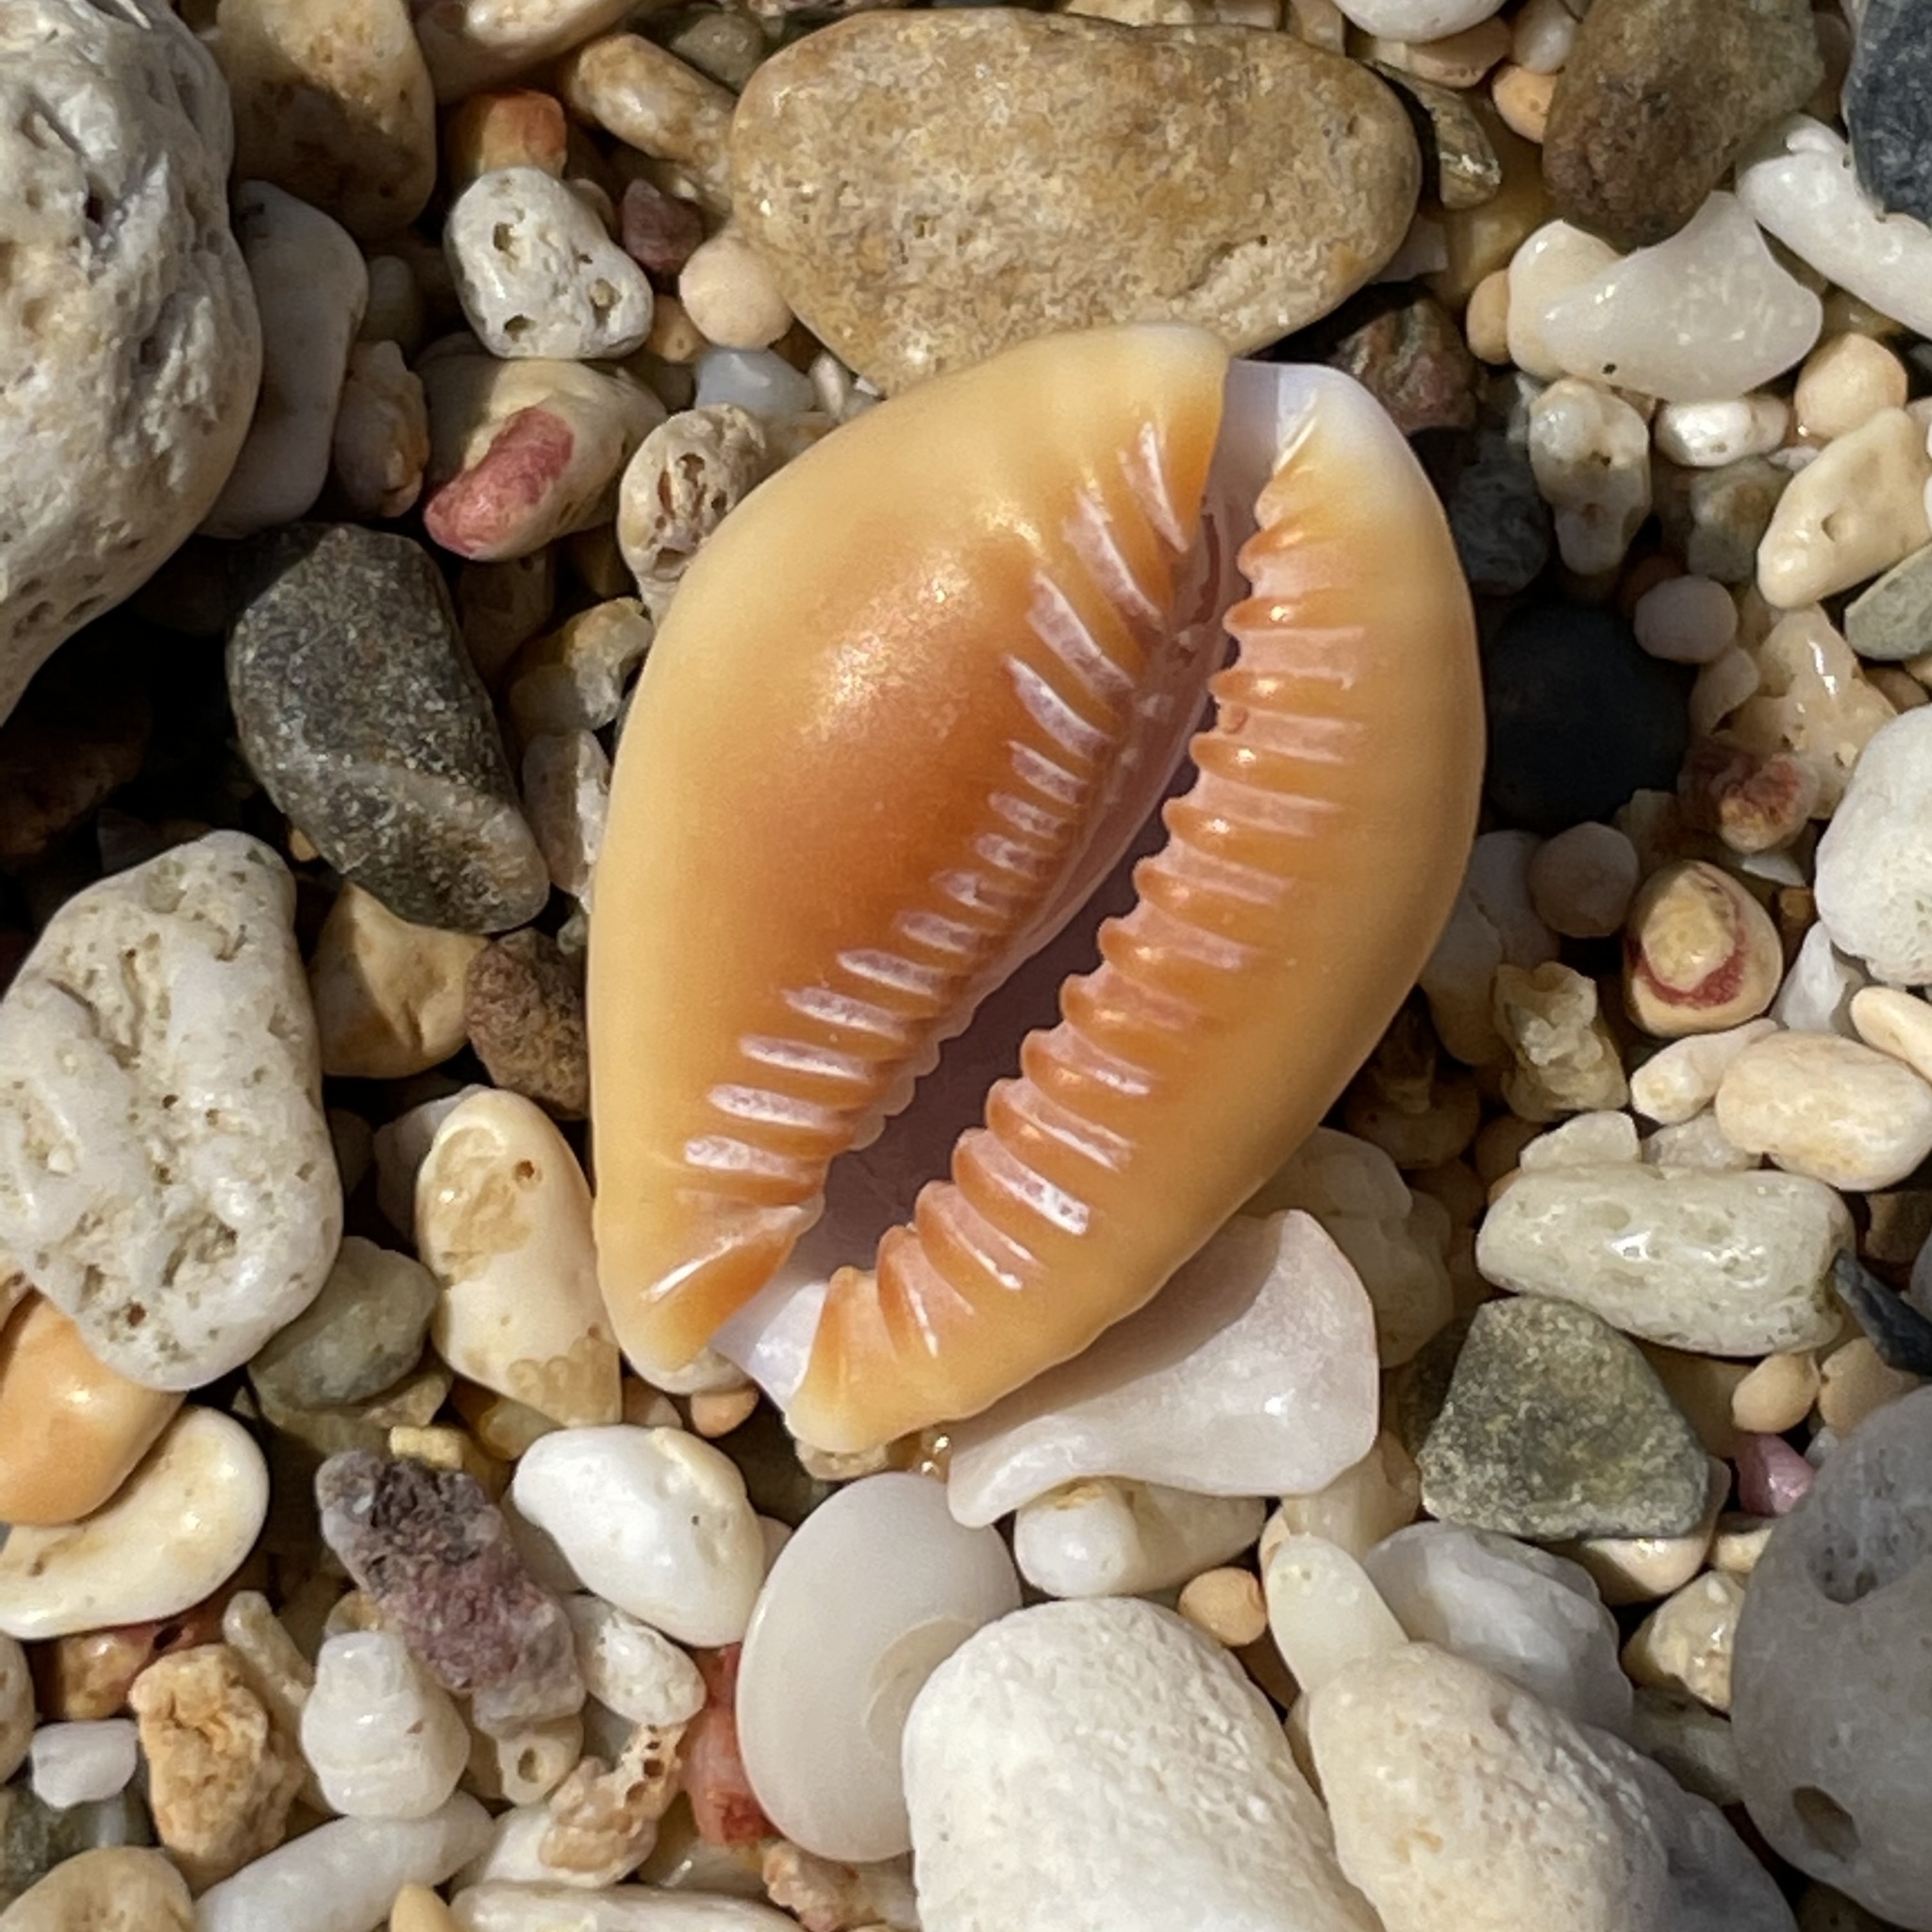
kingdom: Animalia
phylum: Mollusca
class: Gastropoda
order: Littorinimorpha
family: Cypraeidae
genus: Naria
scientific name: Naria helvola
